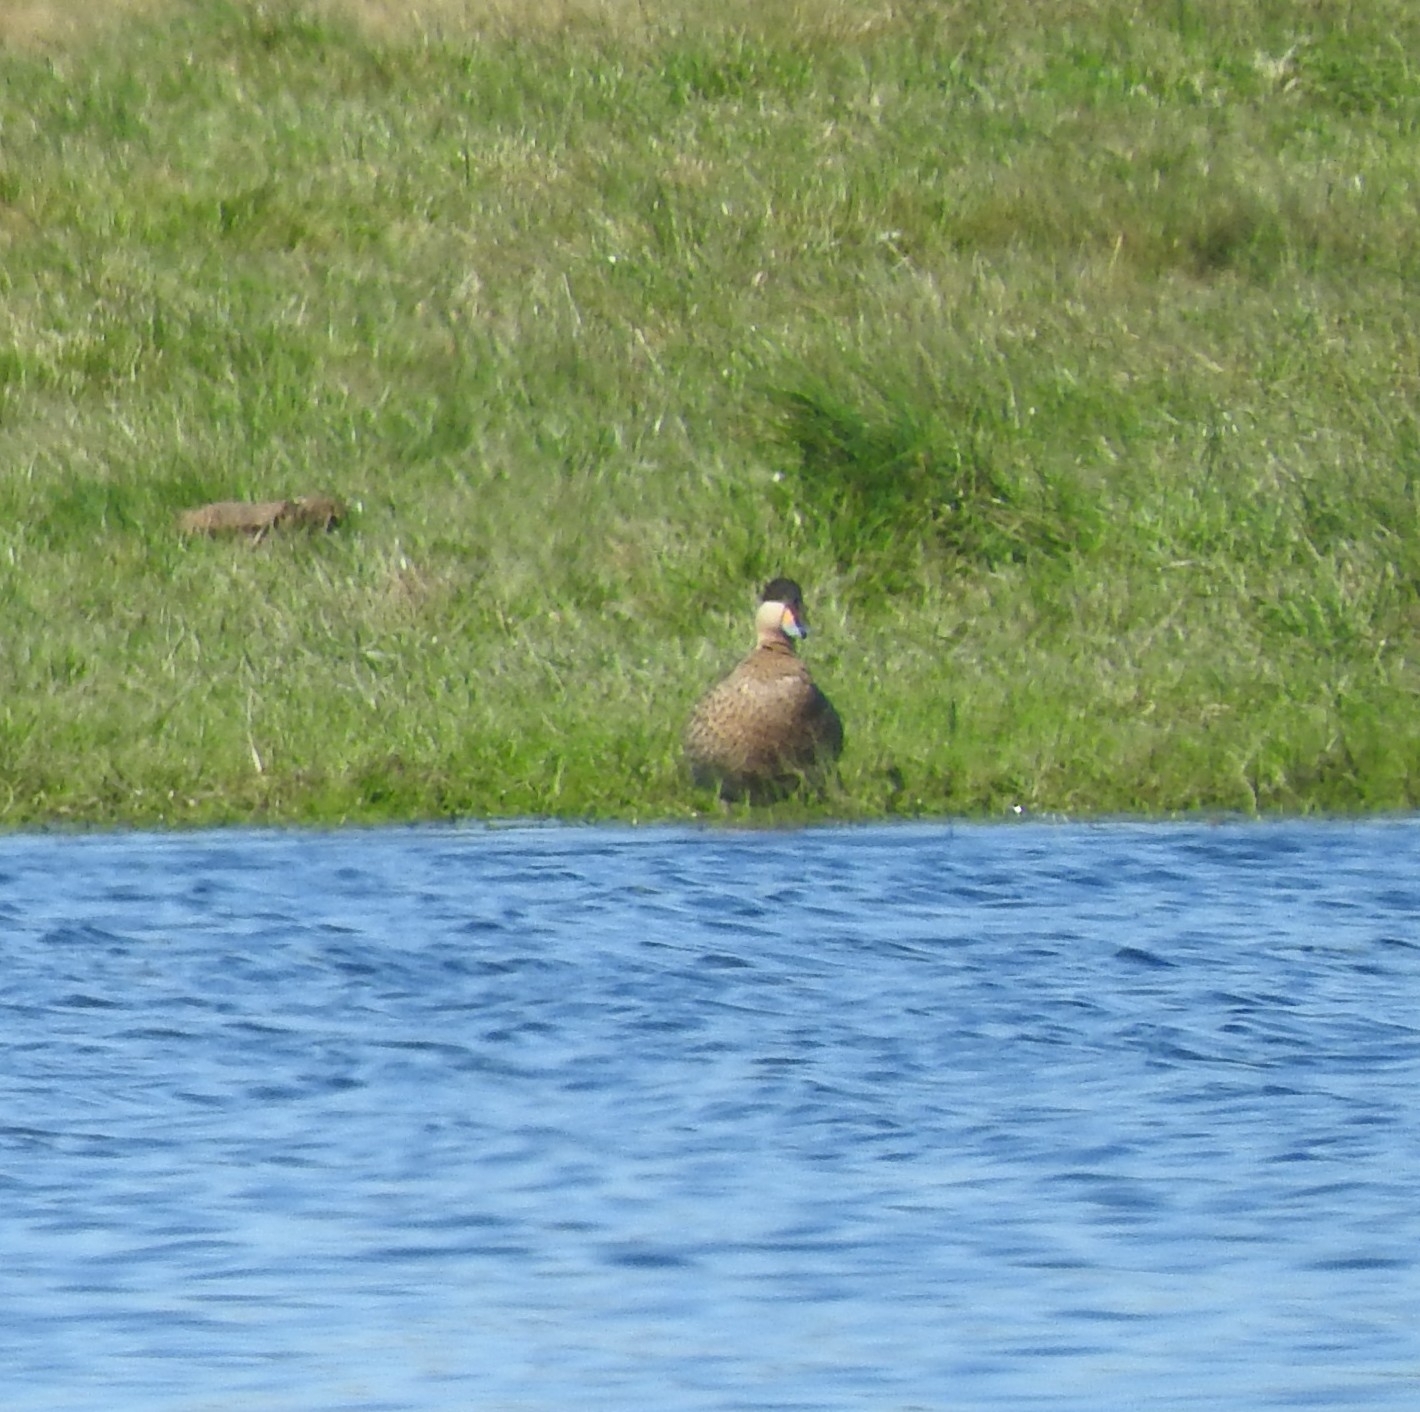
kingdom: Animalia
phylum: Chordata
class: Aves
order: Anseriformes
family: Anatidae
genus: Spatula
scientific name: Spatula versicolor
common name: Silver teal
